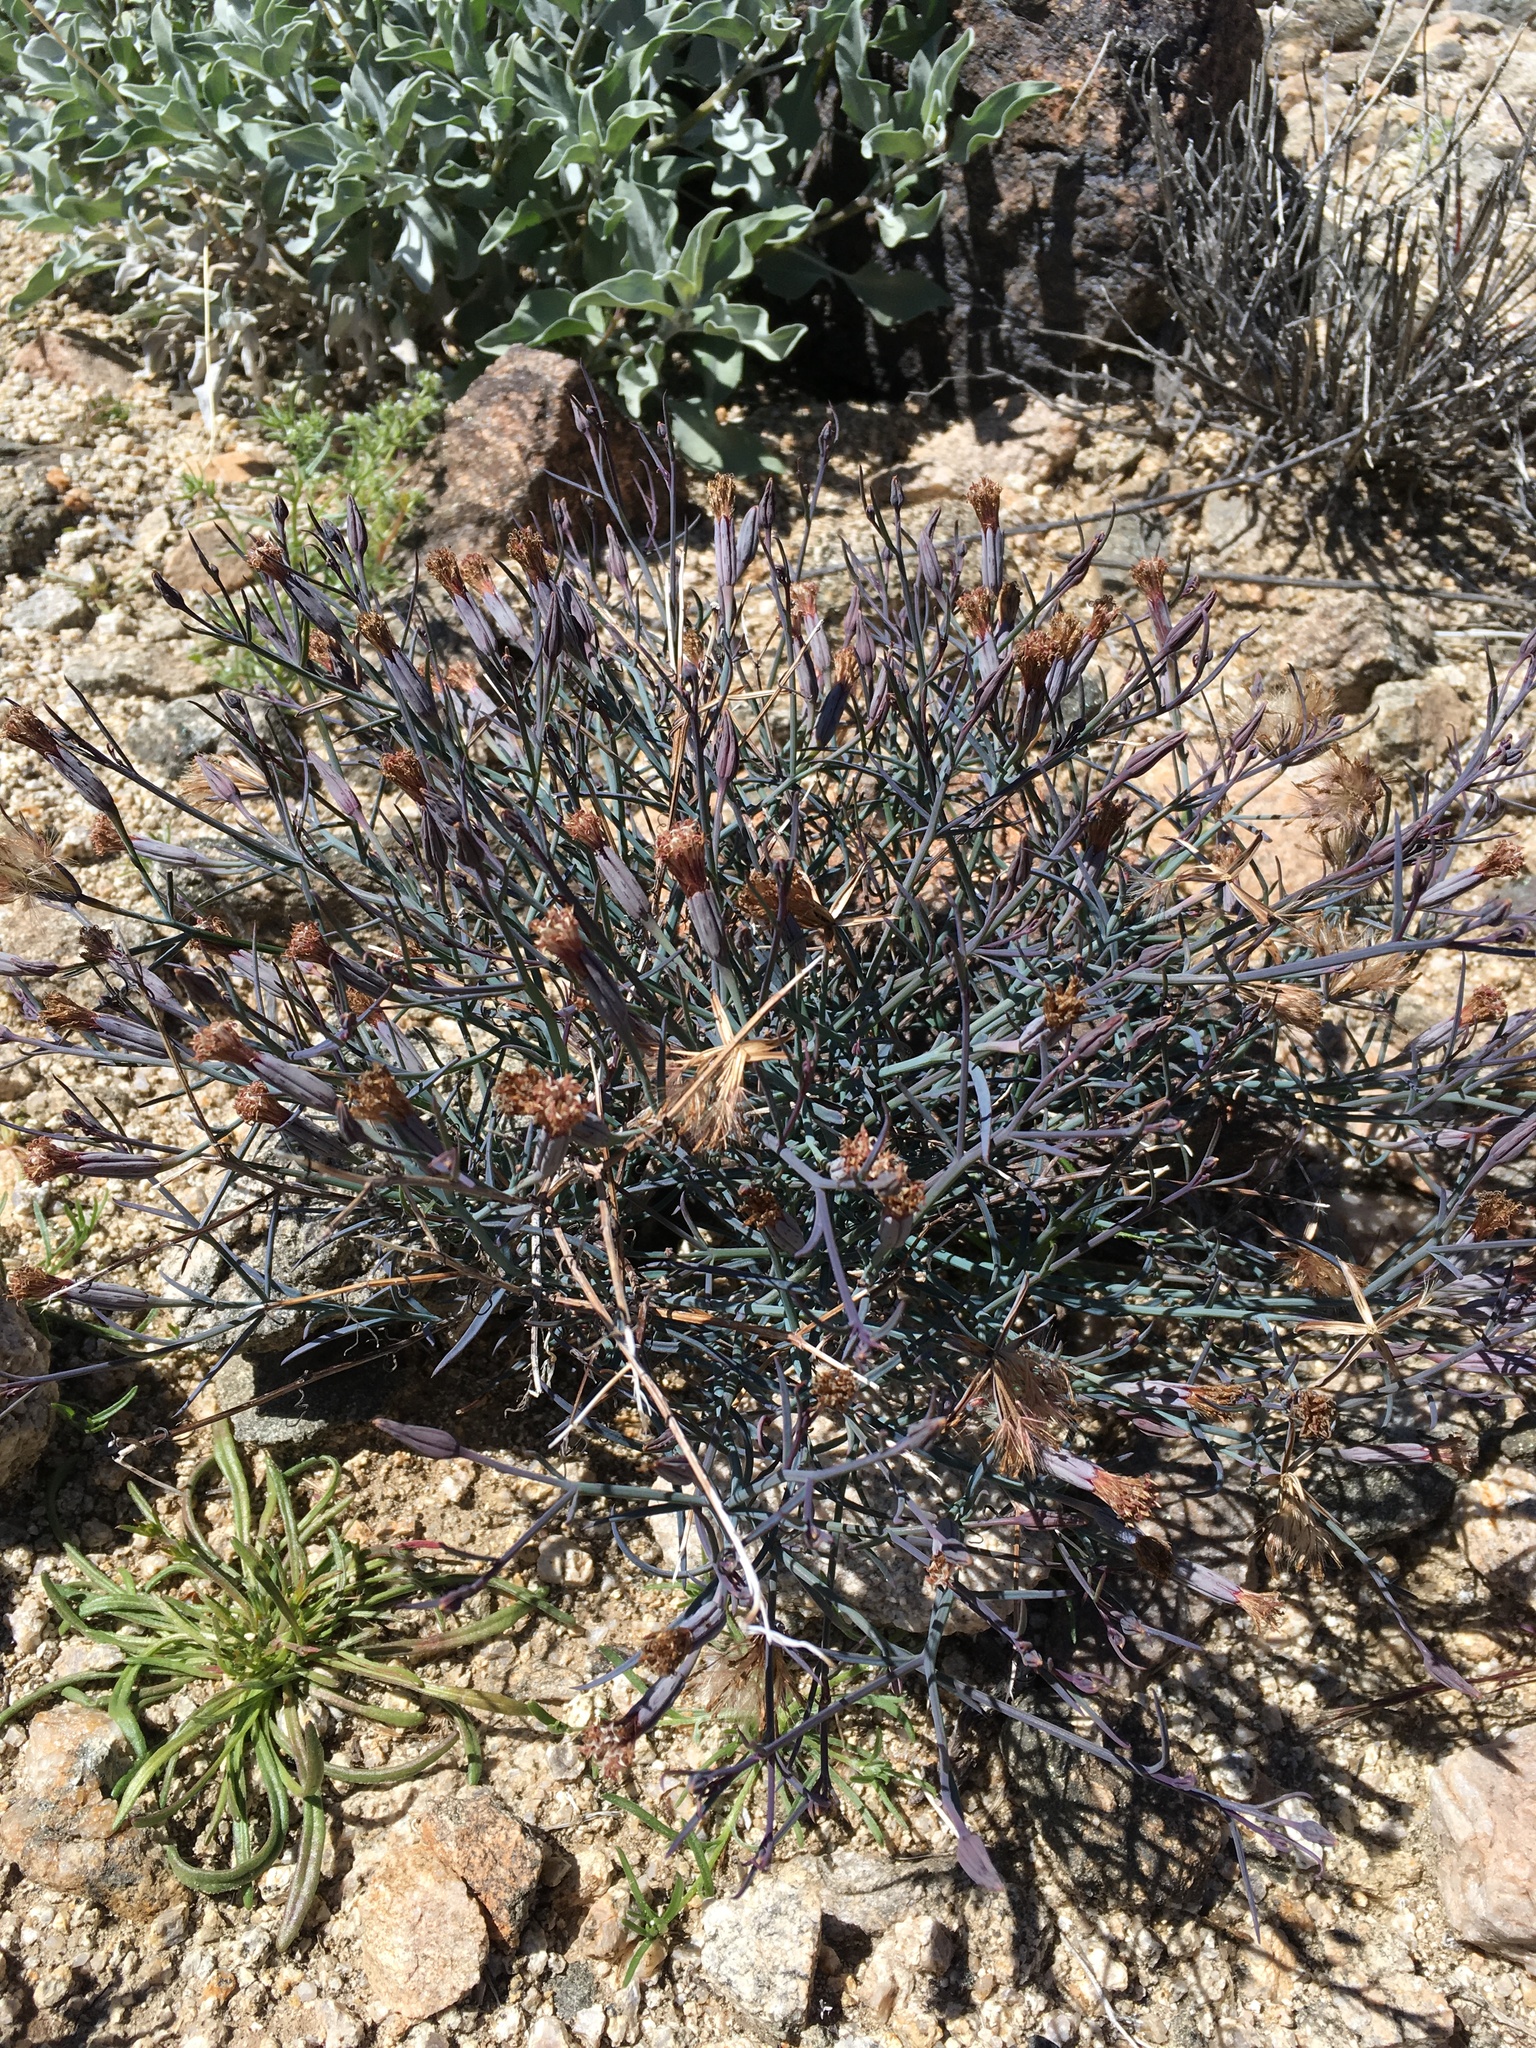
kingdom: Plantae
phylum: Tracheophyta
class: Magnoliopsida
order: Asterales
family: Asteraceae
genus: Porophyllum
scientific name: Porophyllum gracile
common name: Odora
